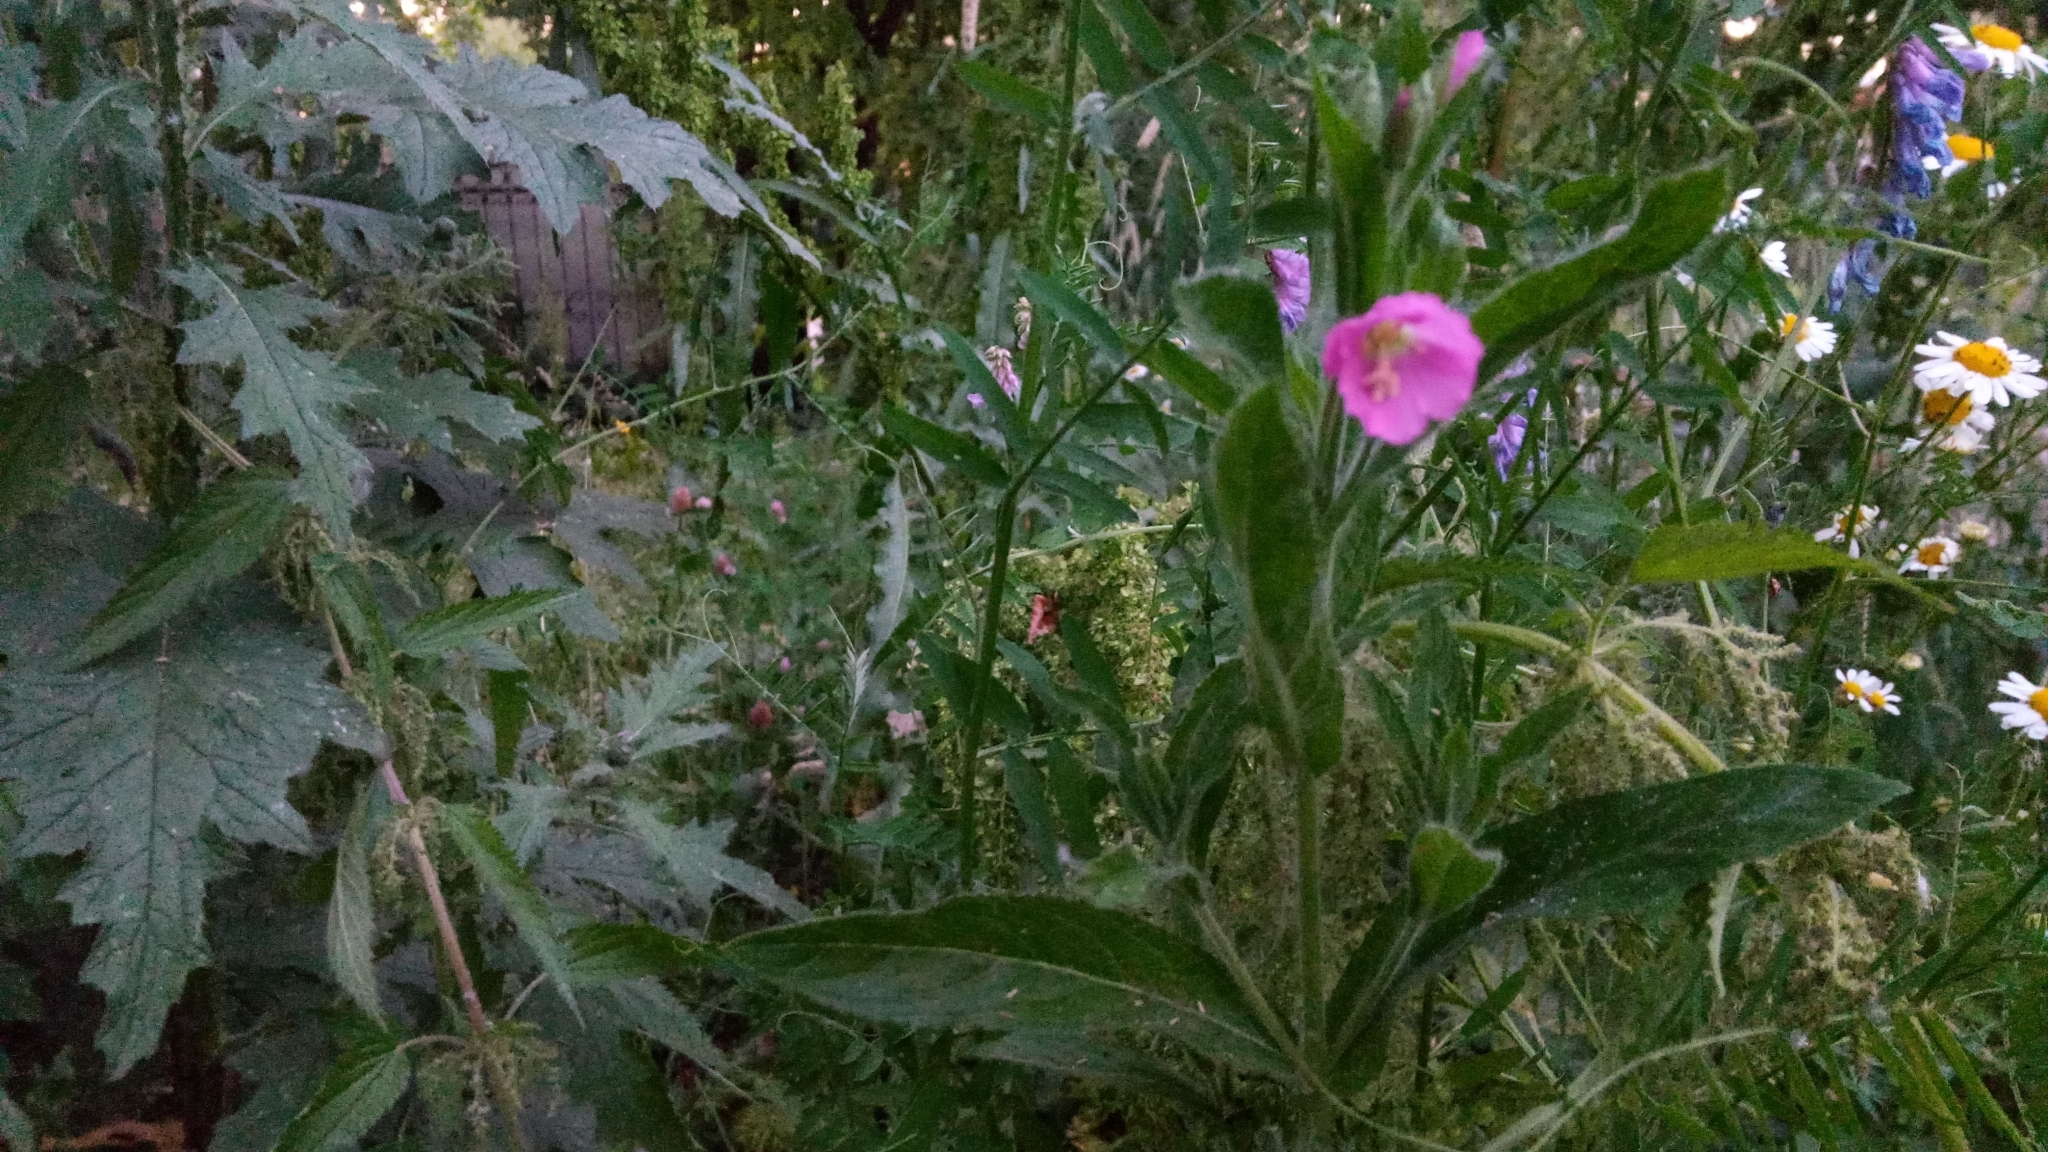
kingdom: Plantae
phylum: Tracheophyta
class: Magnoliopsida
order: Myrtales
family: Onagraceae
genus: Epilobium
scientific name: Epilobium hirsutum
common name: Great willowherb
